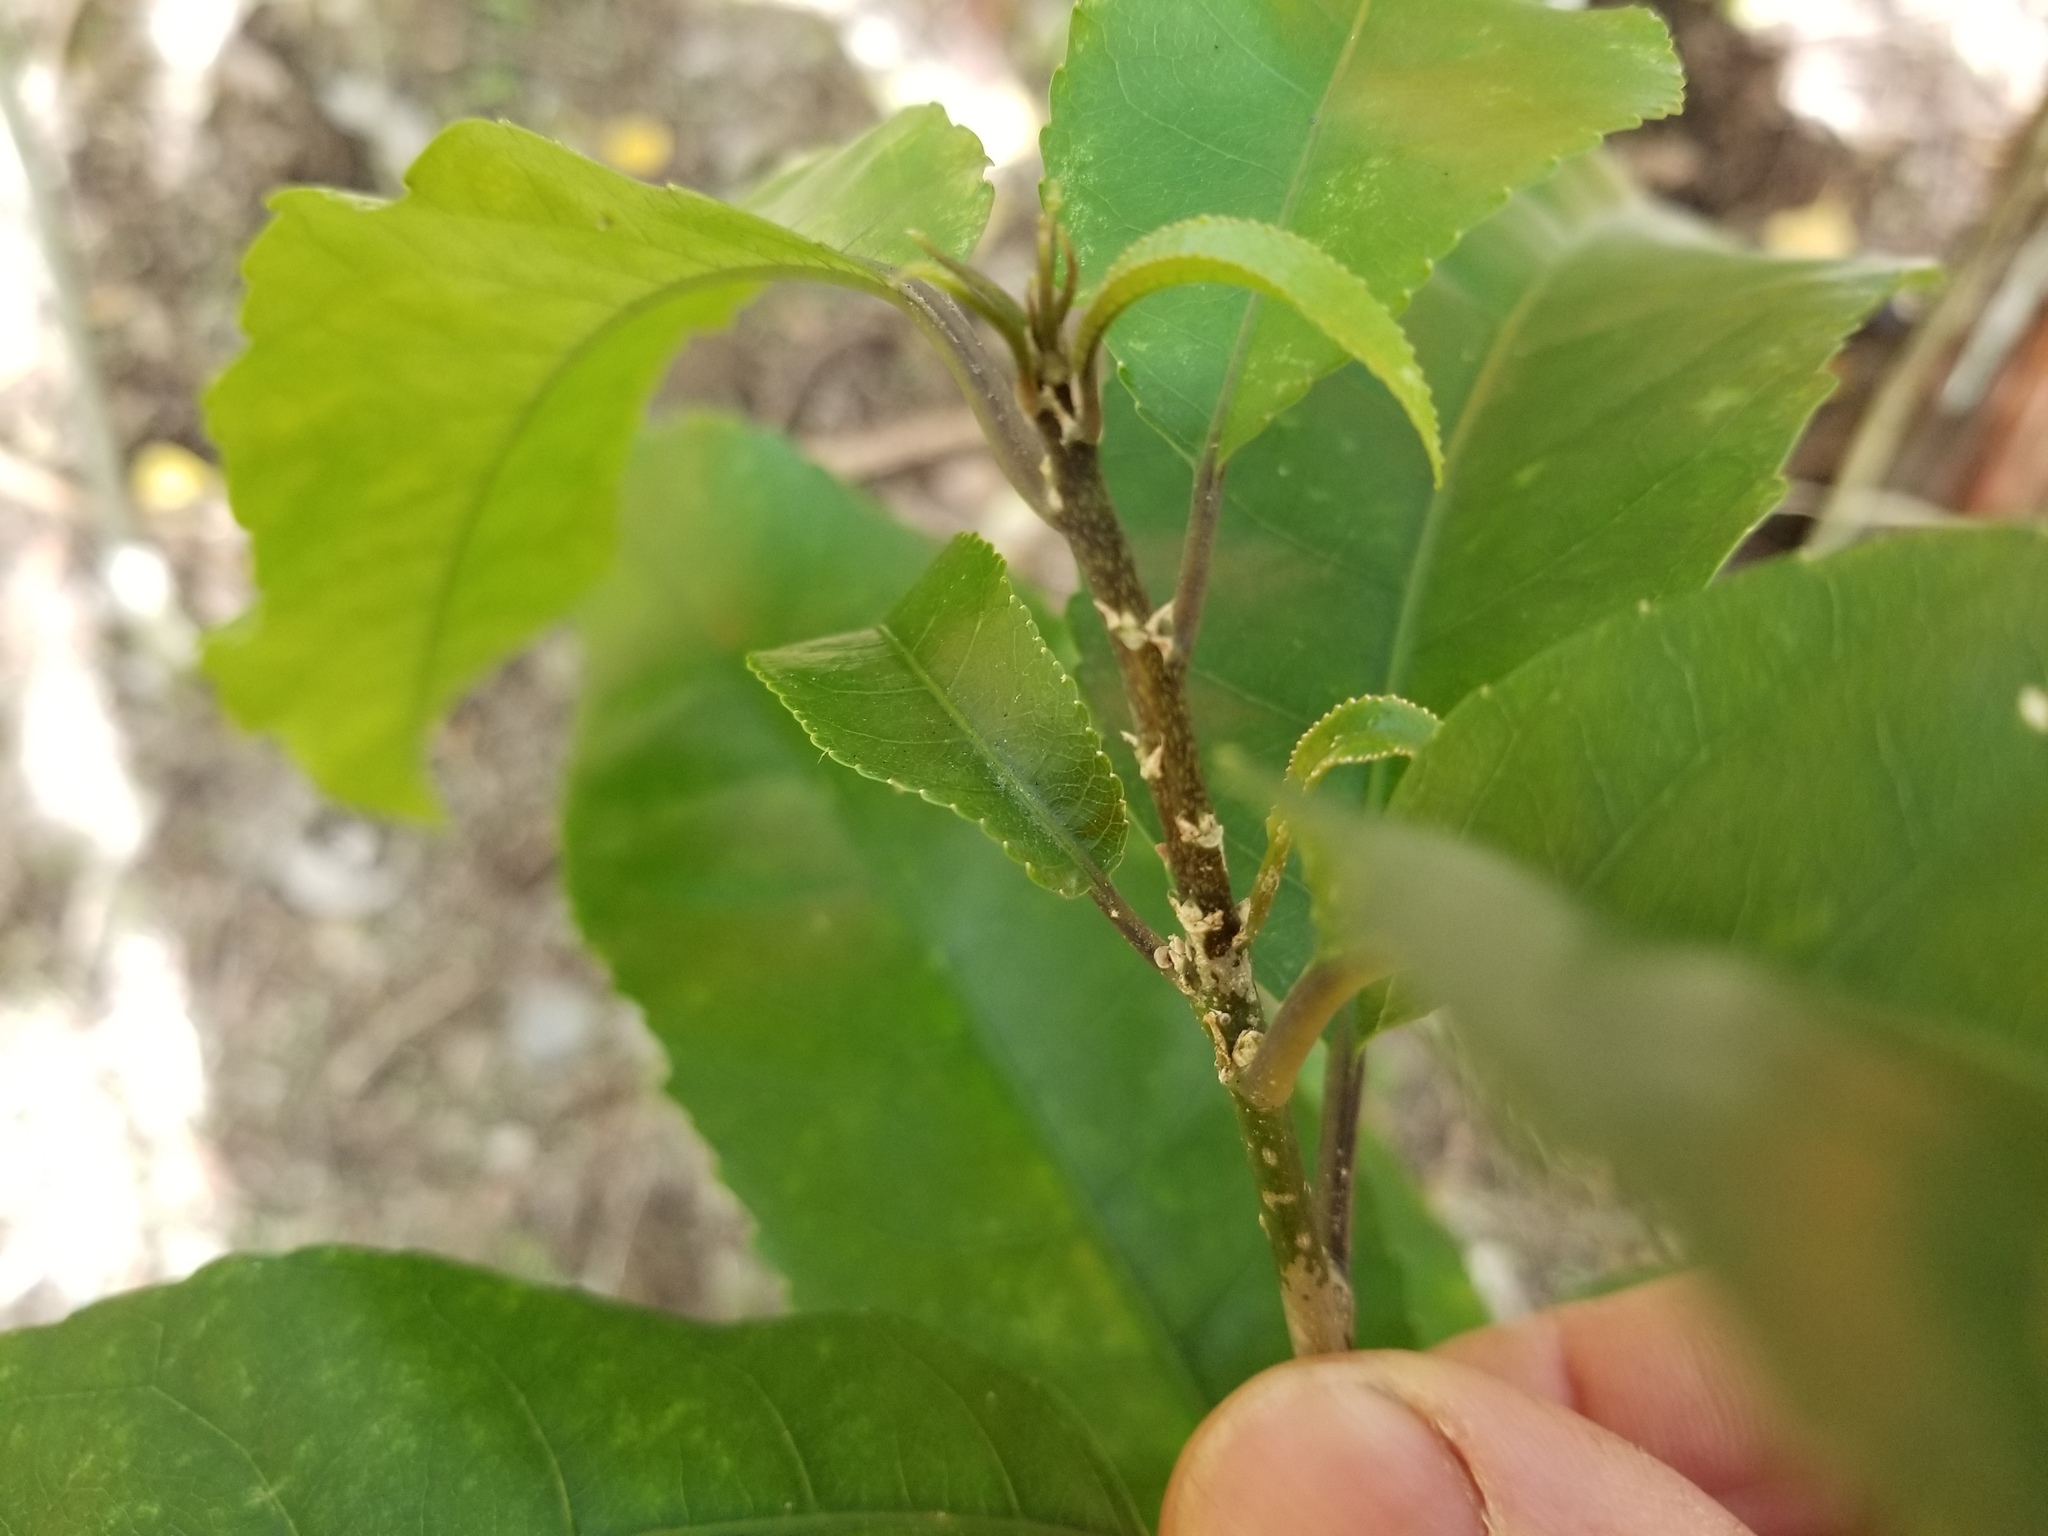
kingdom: Plantae
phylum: Tracheophyta
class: Magnoliopsida
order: Malpighiales
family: Violaceae
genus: Melicytus
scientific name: Melicytus ramiflorus
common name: Mahoe
